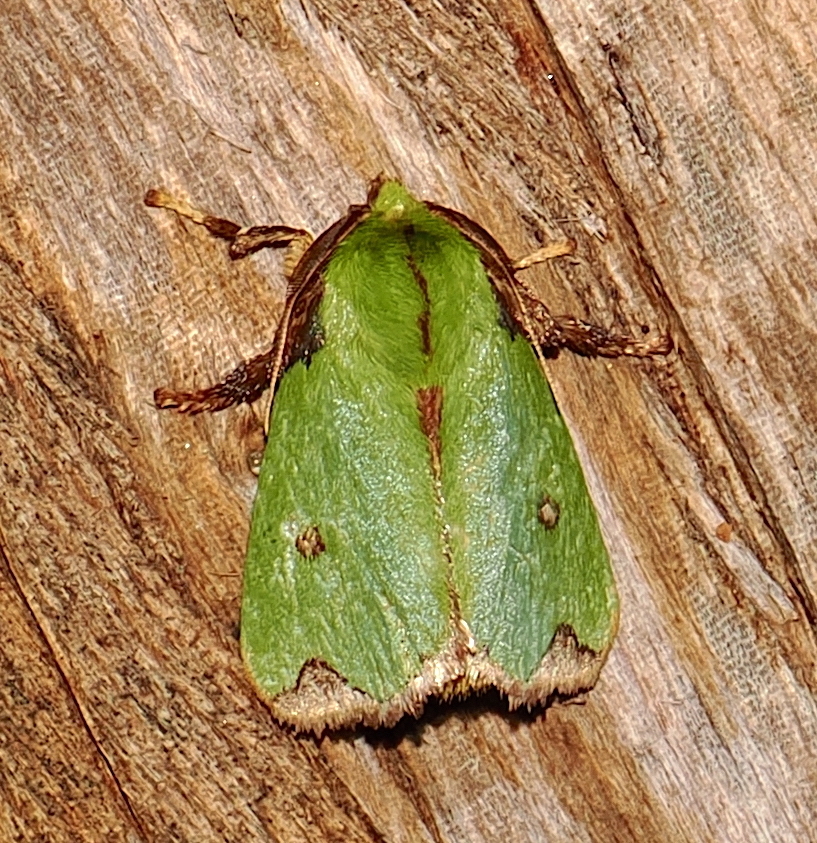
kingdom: Animalia
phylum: Arthropoda
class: Insecta
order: Lepidoptera
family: Limacodidae
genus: Parasa
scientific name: Parasa mossica
